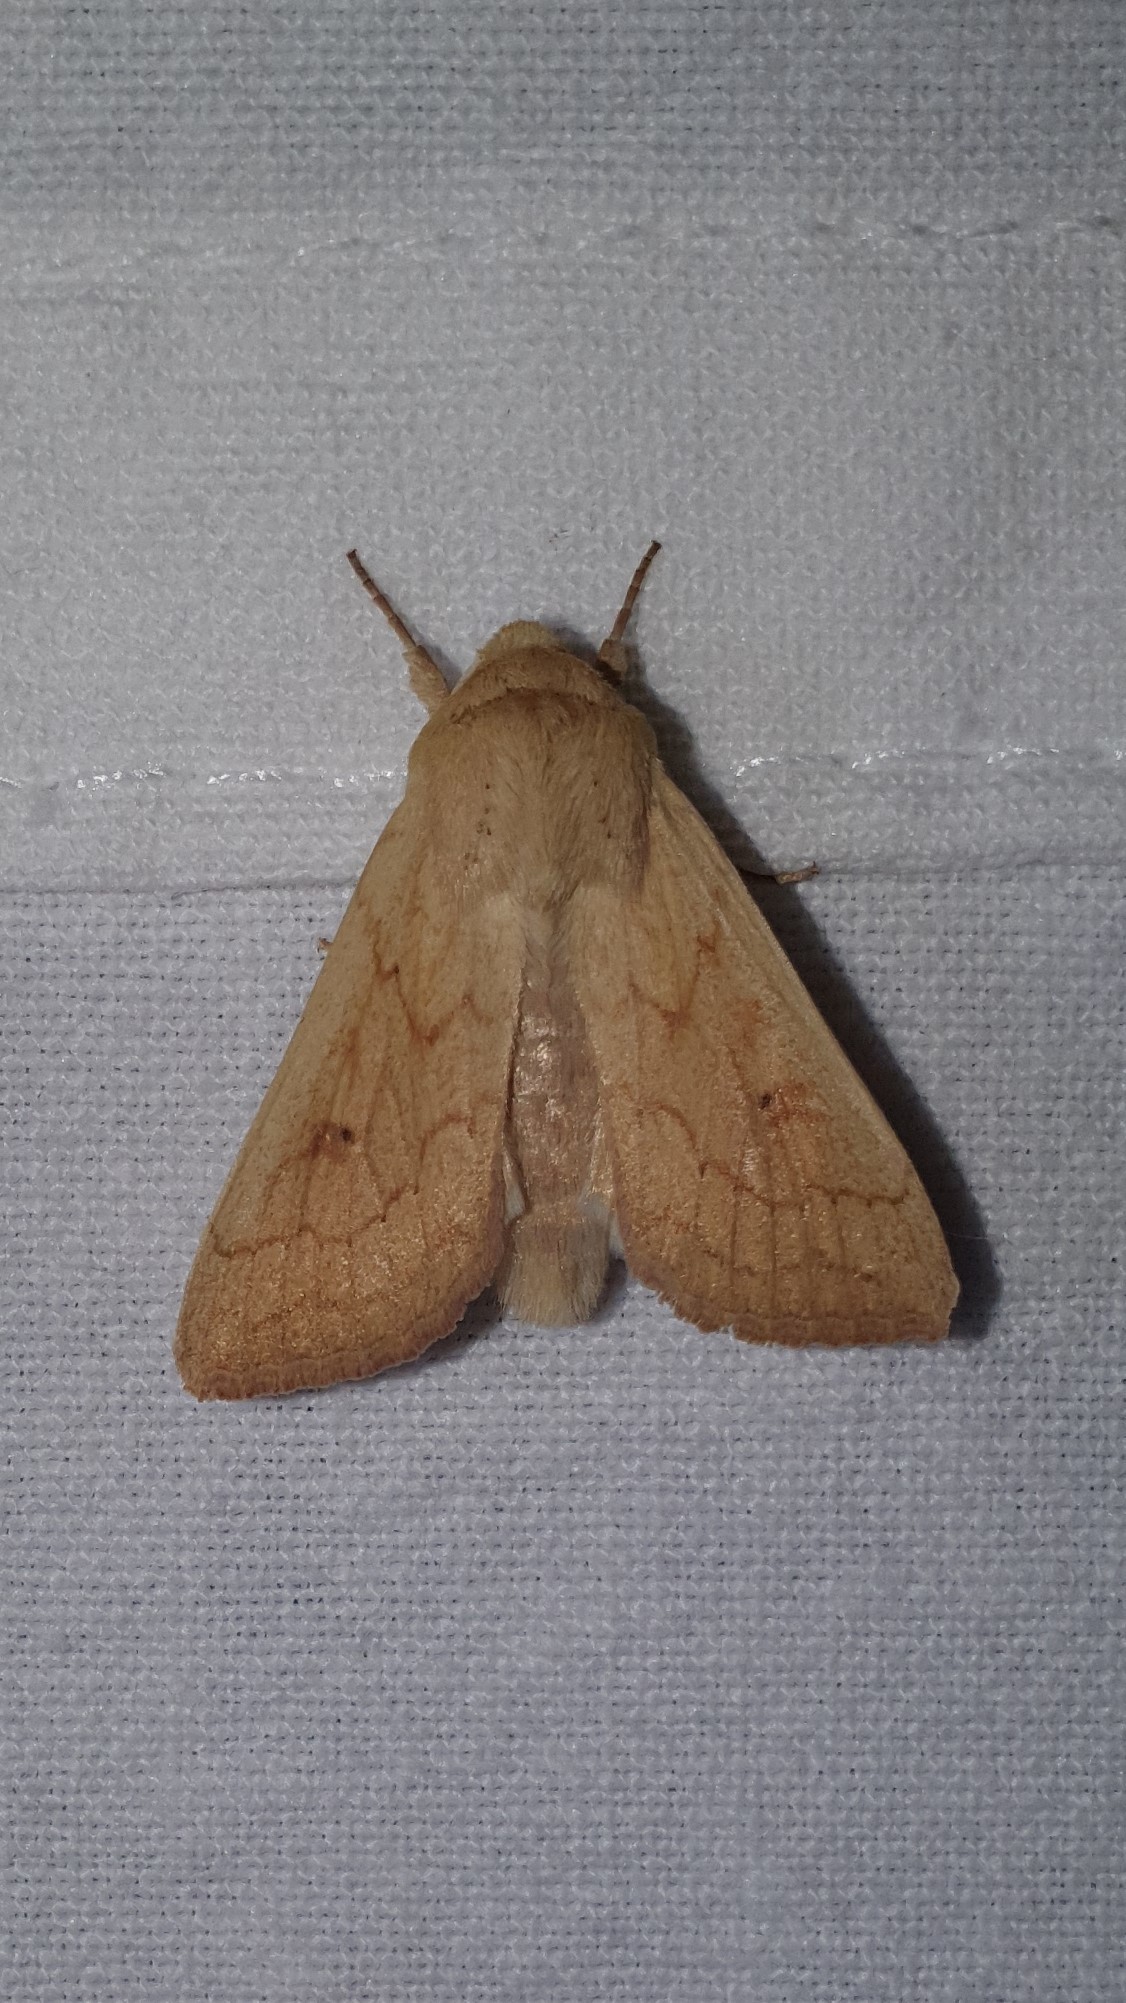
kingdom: Animalia
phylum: Arthropoda
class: Insecta
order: Lepidoptera
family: Noctuidae
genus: Mythimna
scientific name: Mythimna vitellina
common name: Delicate
